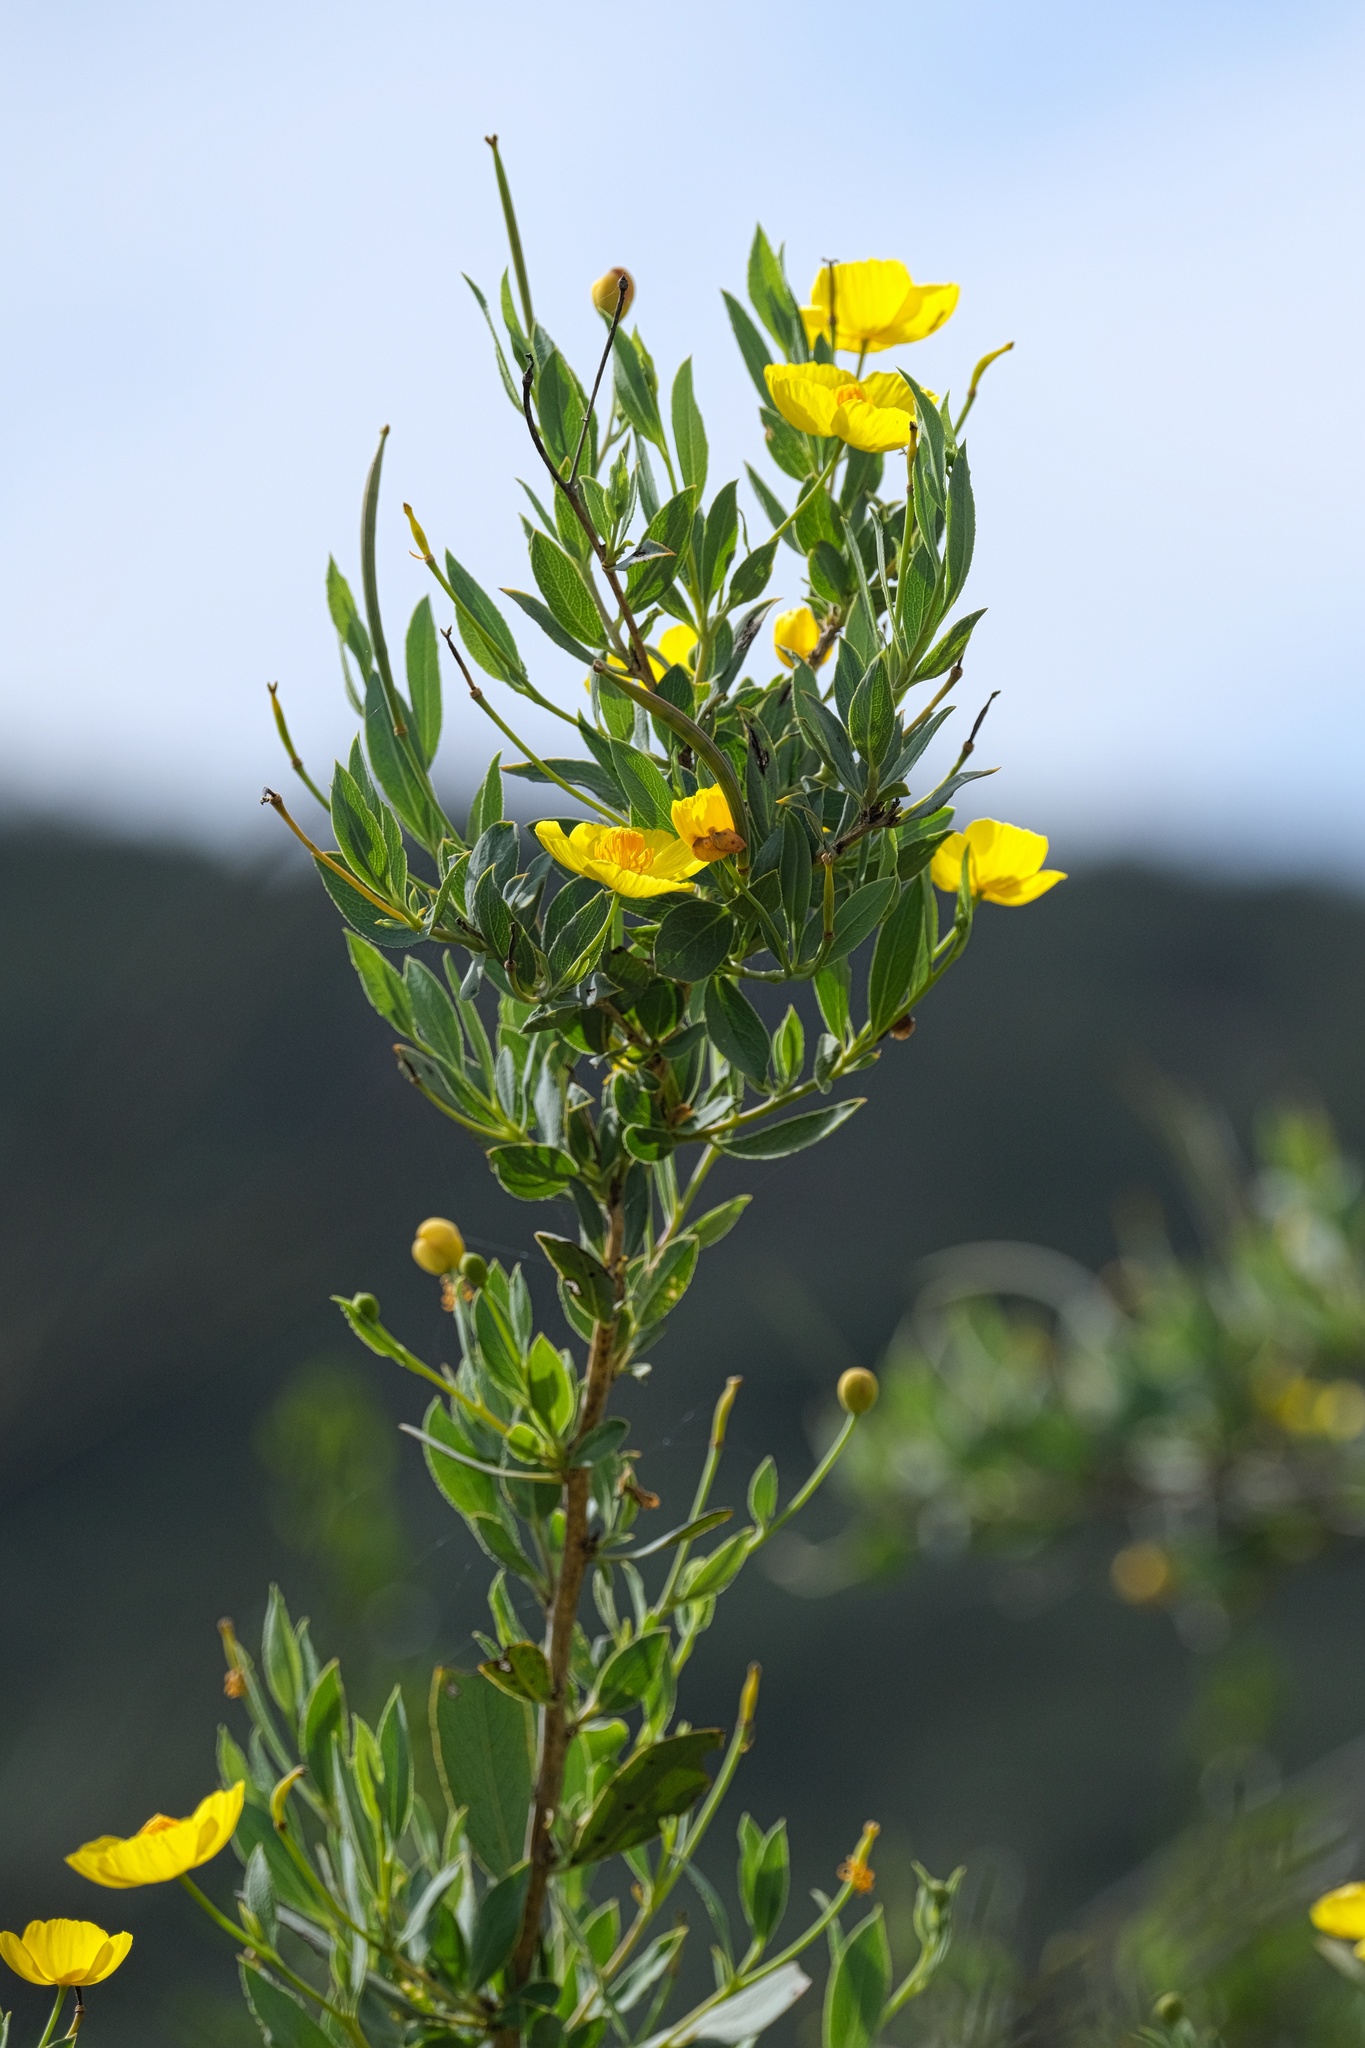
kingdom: Plantae
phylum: Tracheophyta
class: Magnoliopsida
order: Ranunculales
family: Papaveraceae
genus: Dendromecon
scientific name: Dendromecon rigida
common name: Tree poppy
